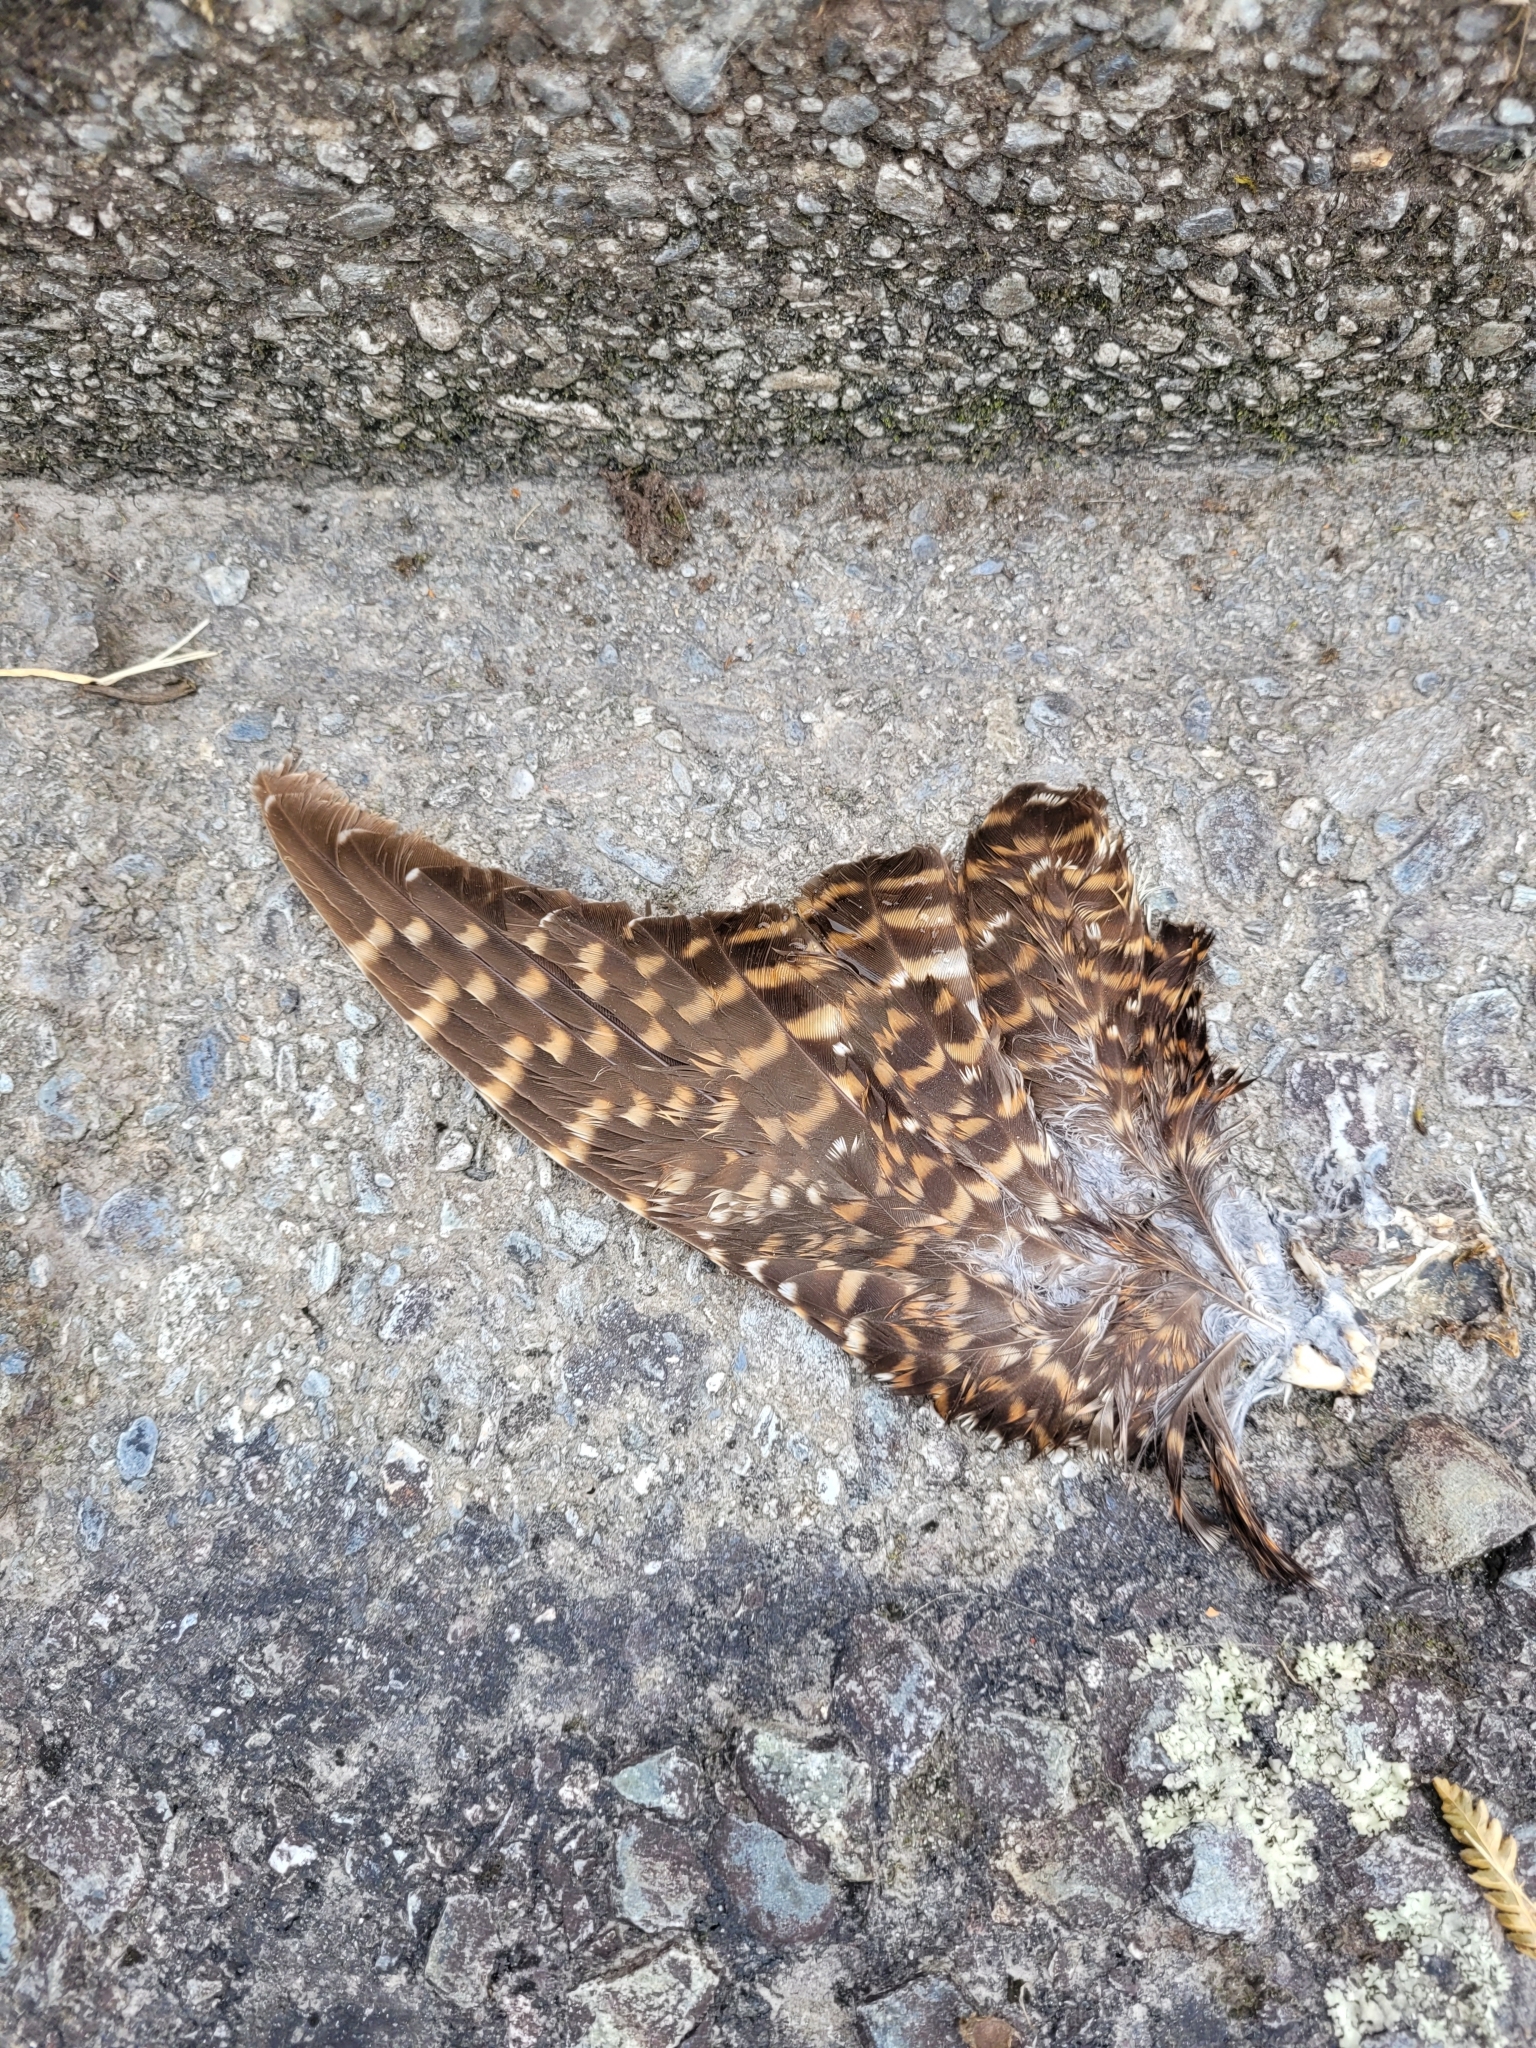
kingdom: Animalia
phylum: Chordata
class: Aves
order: Cuculiformes
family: Cuculidae
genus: Urodynamis
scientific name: Urodynamis taitensis
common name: Long-tailed koel
